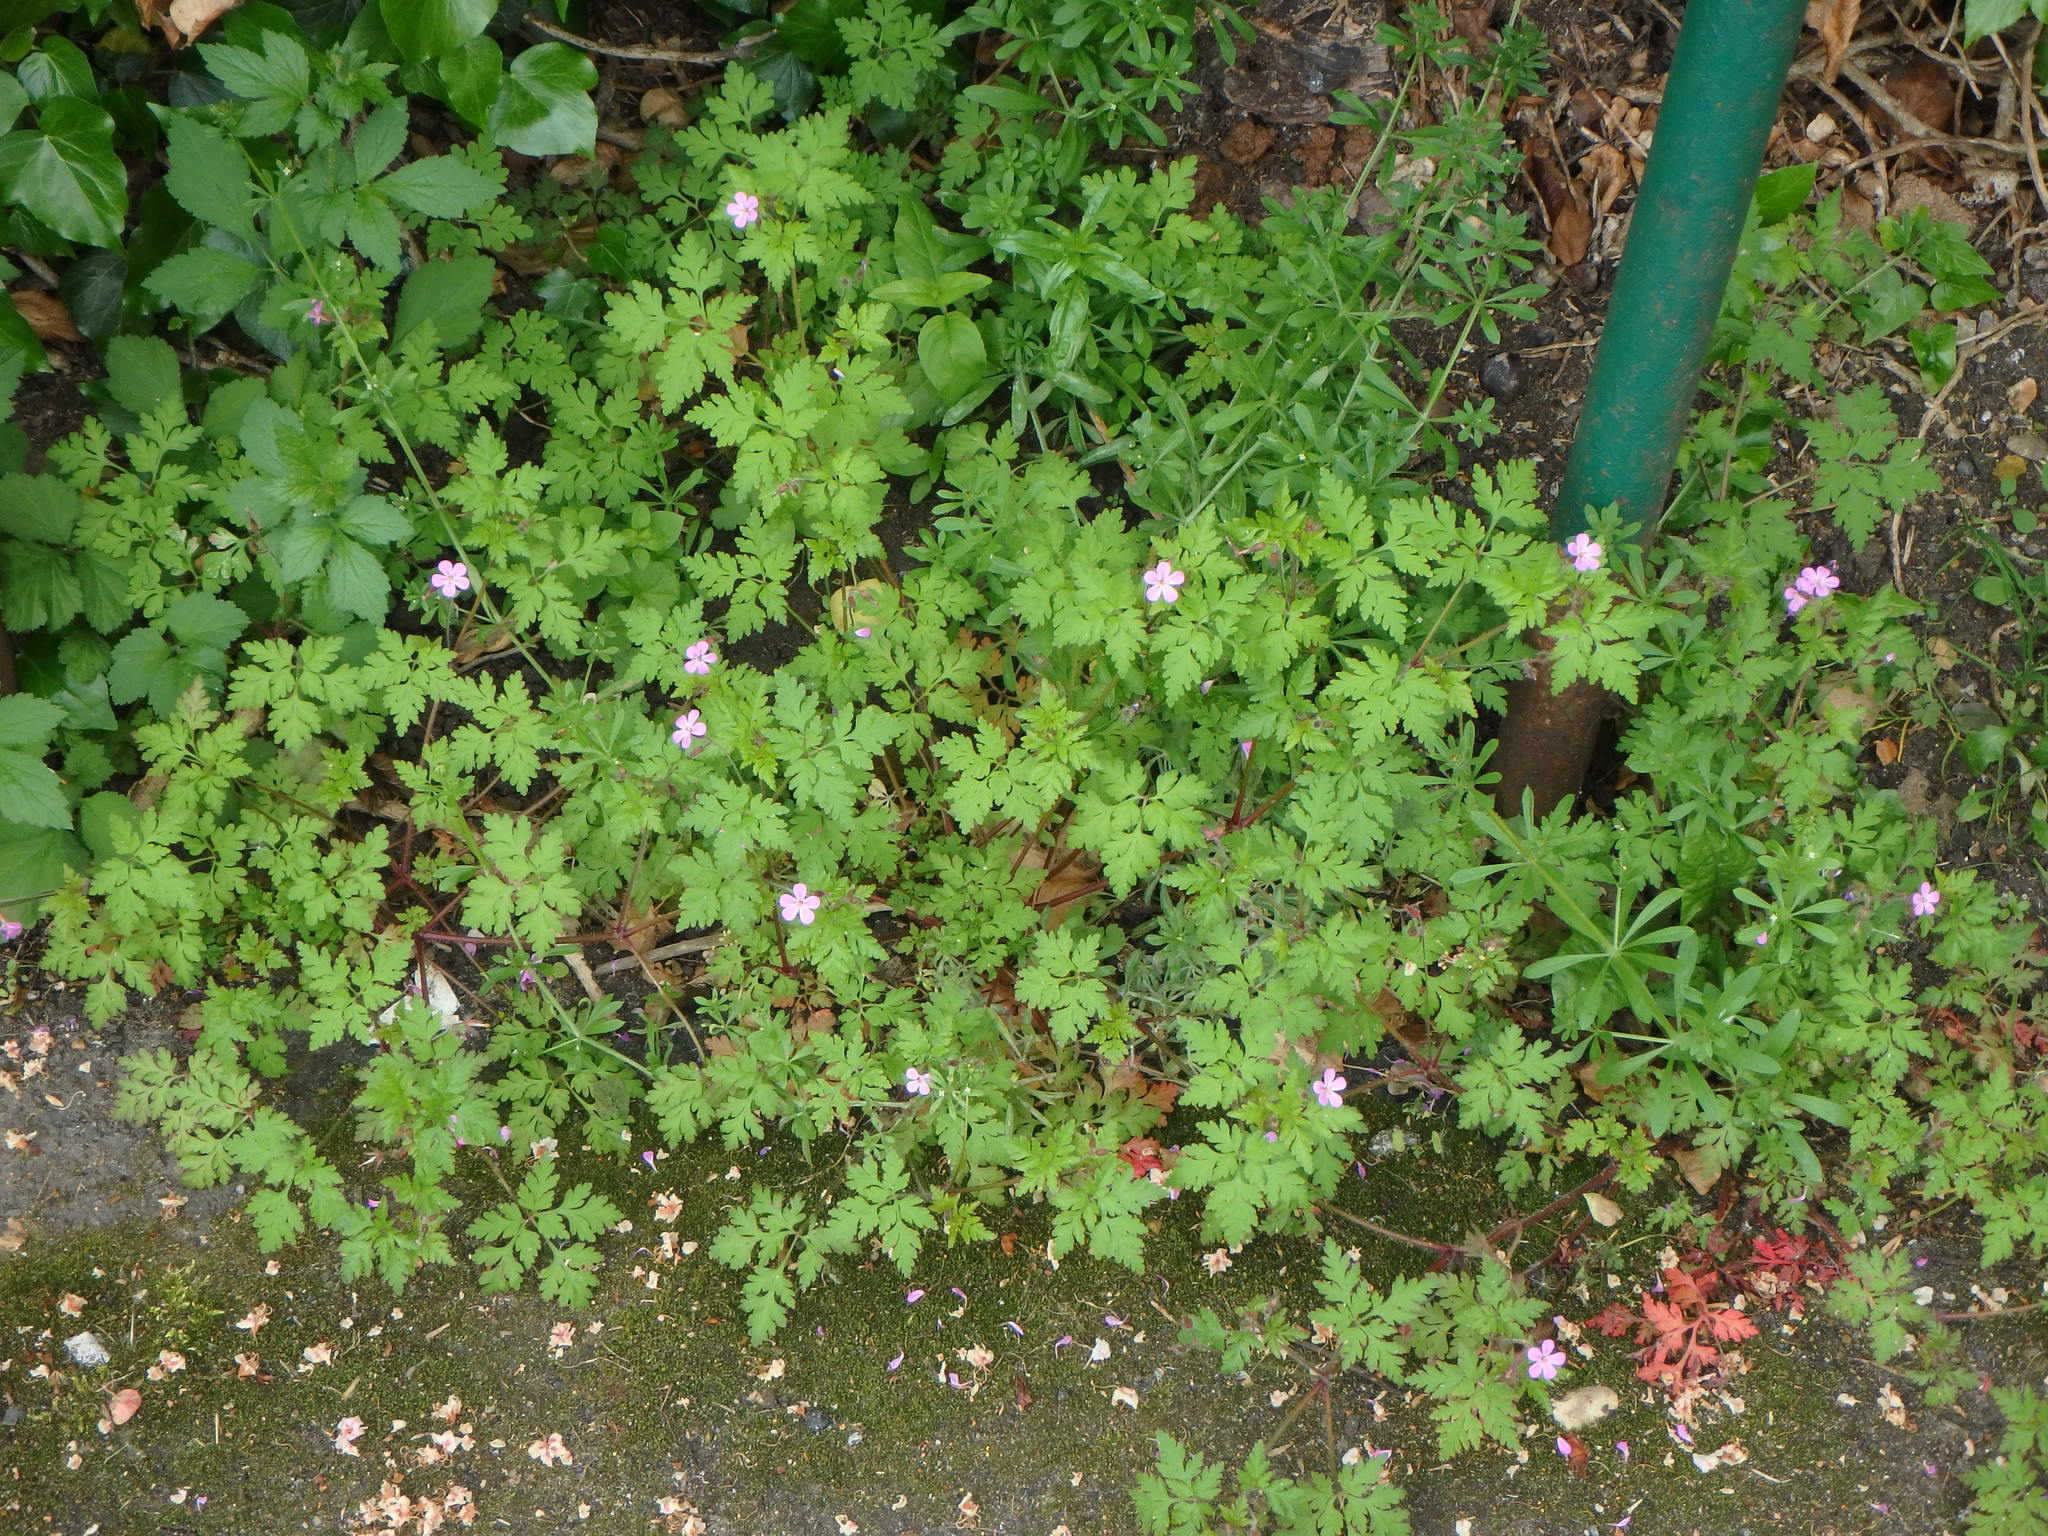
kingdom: Plantae
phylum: Tracheophyta
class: Magnoliopsida
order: Geraniales
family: Geraniaceae
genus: Geranium
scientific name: Geranium robertianum
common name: Herb-robert
